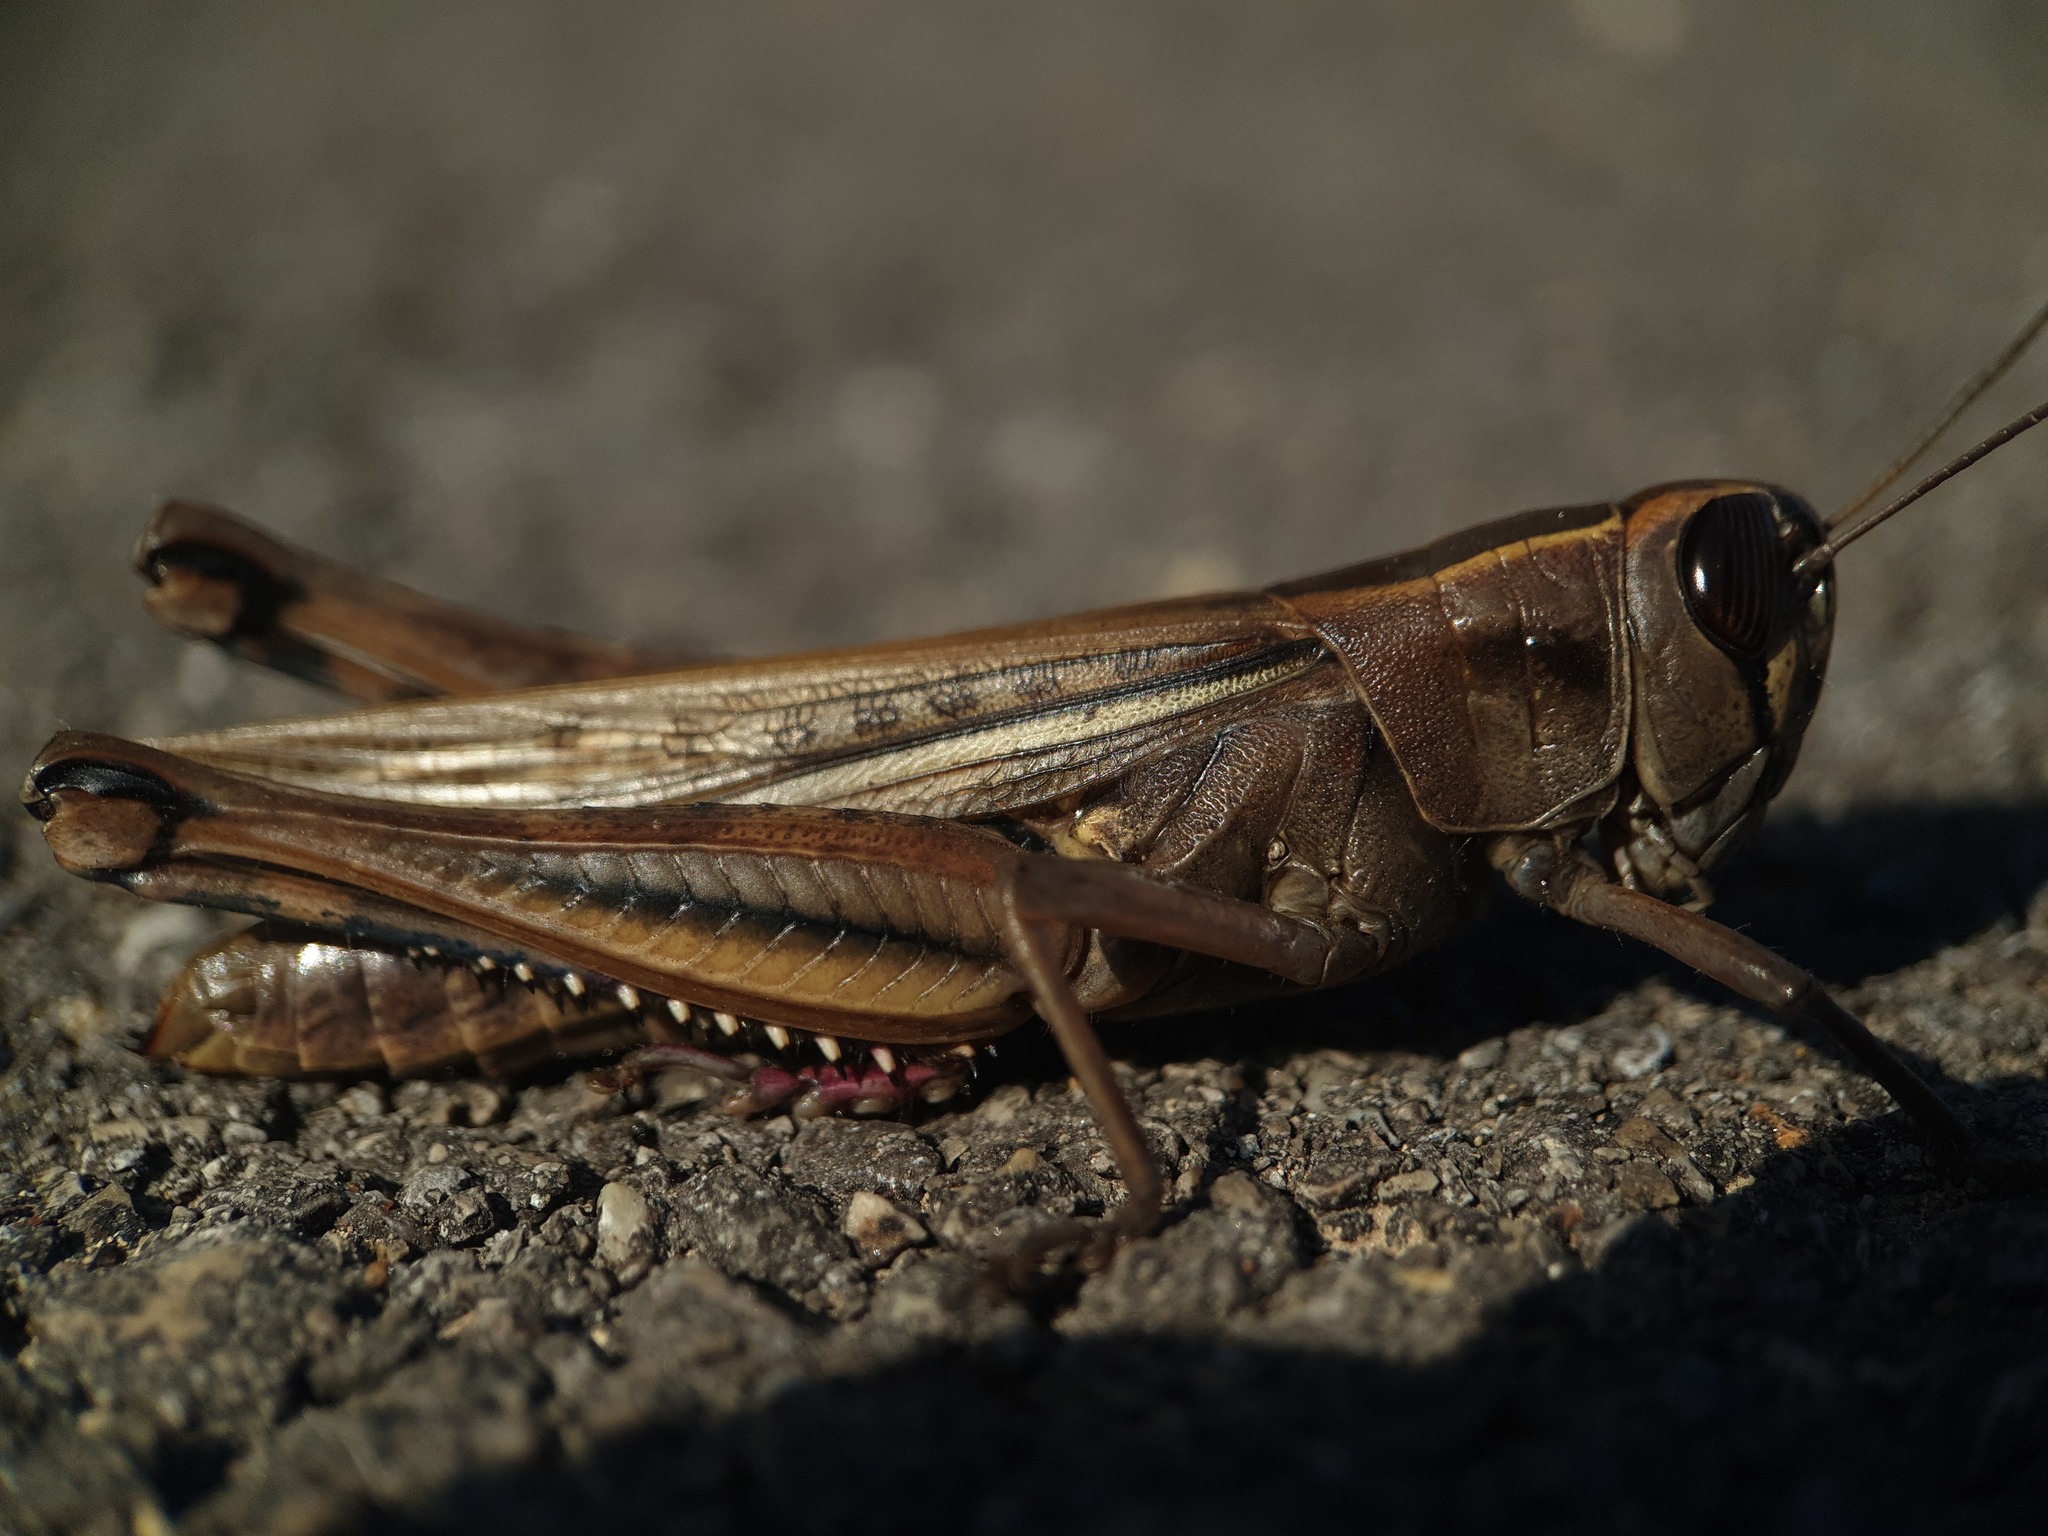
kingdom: Animalia
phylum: Arthropoda
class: Insecta
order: Orthoptera
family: Acrididae
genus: Eyprepocnemis
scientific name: Eyprepocnemis plorans
